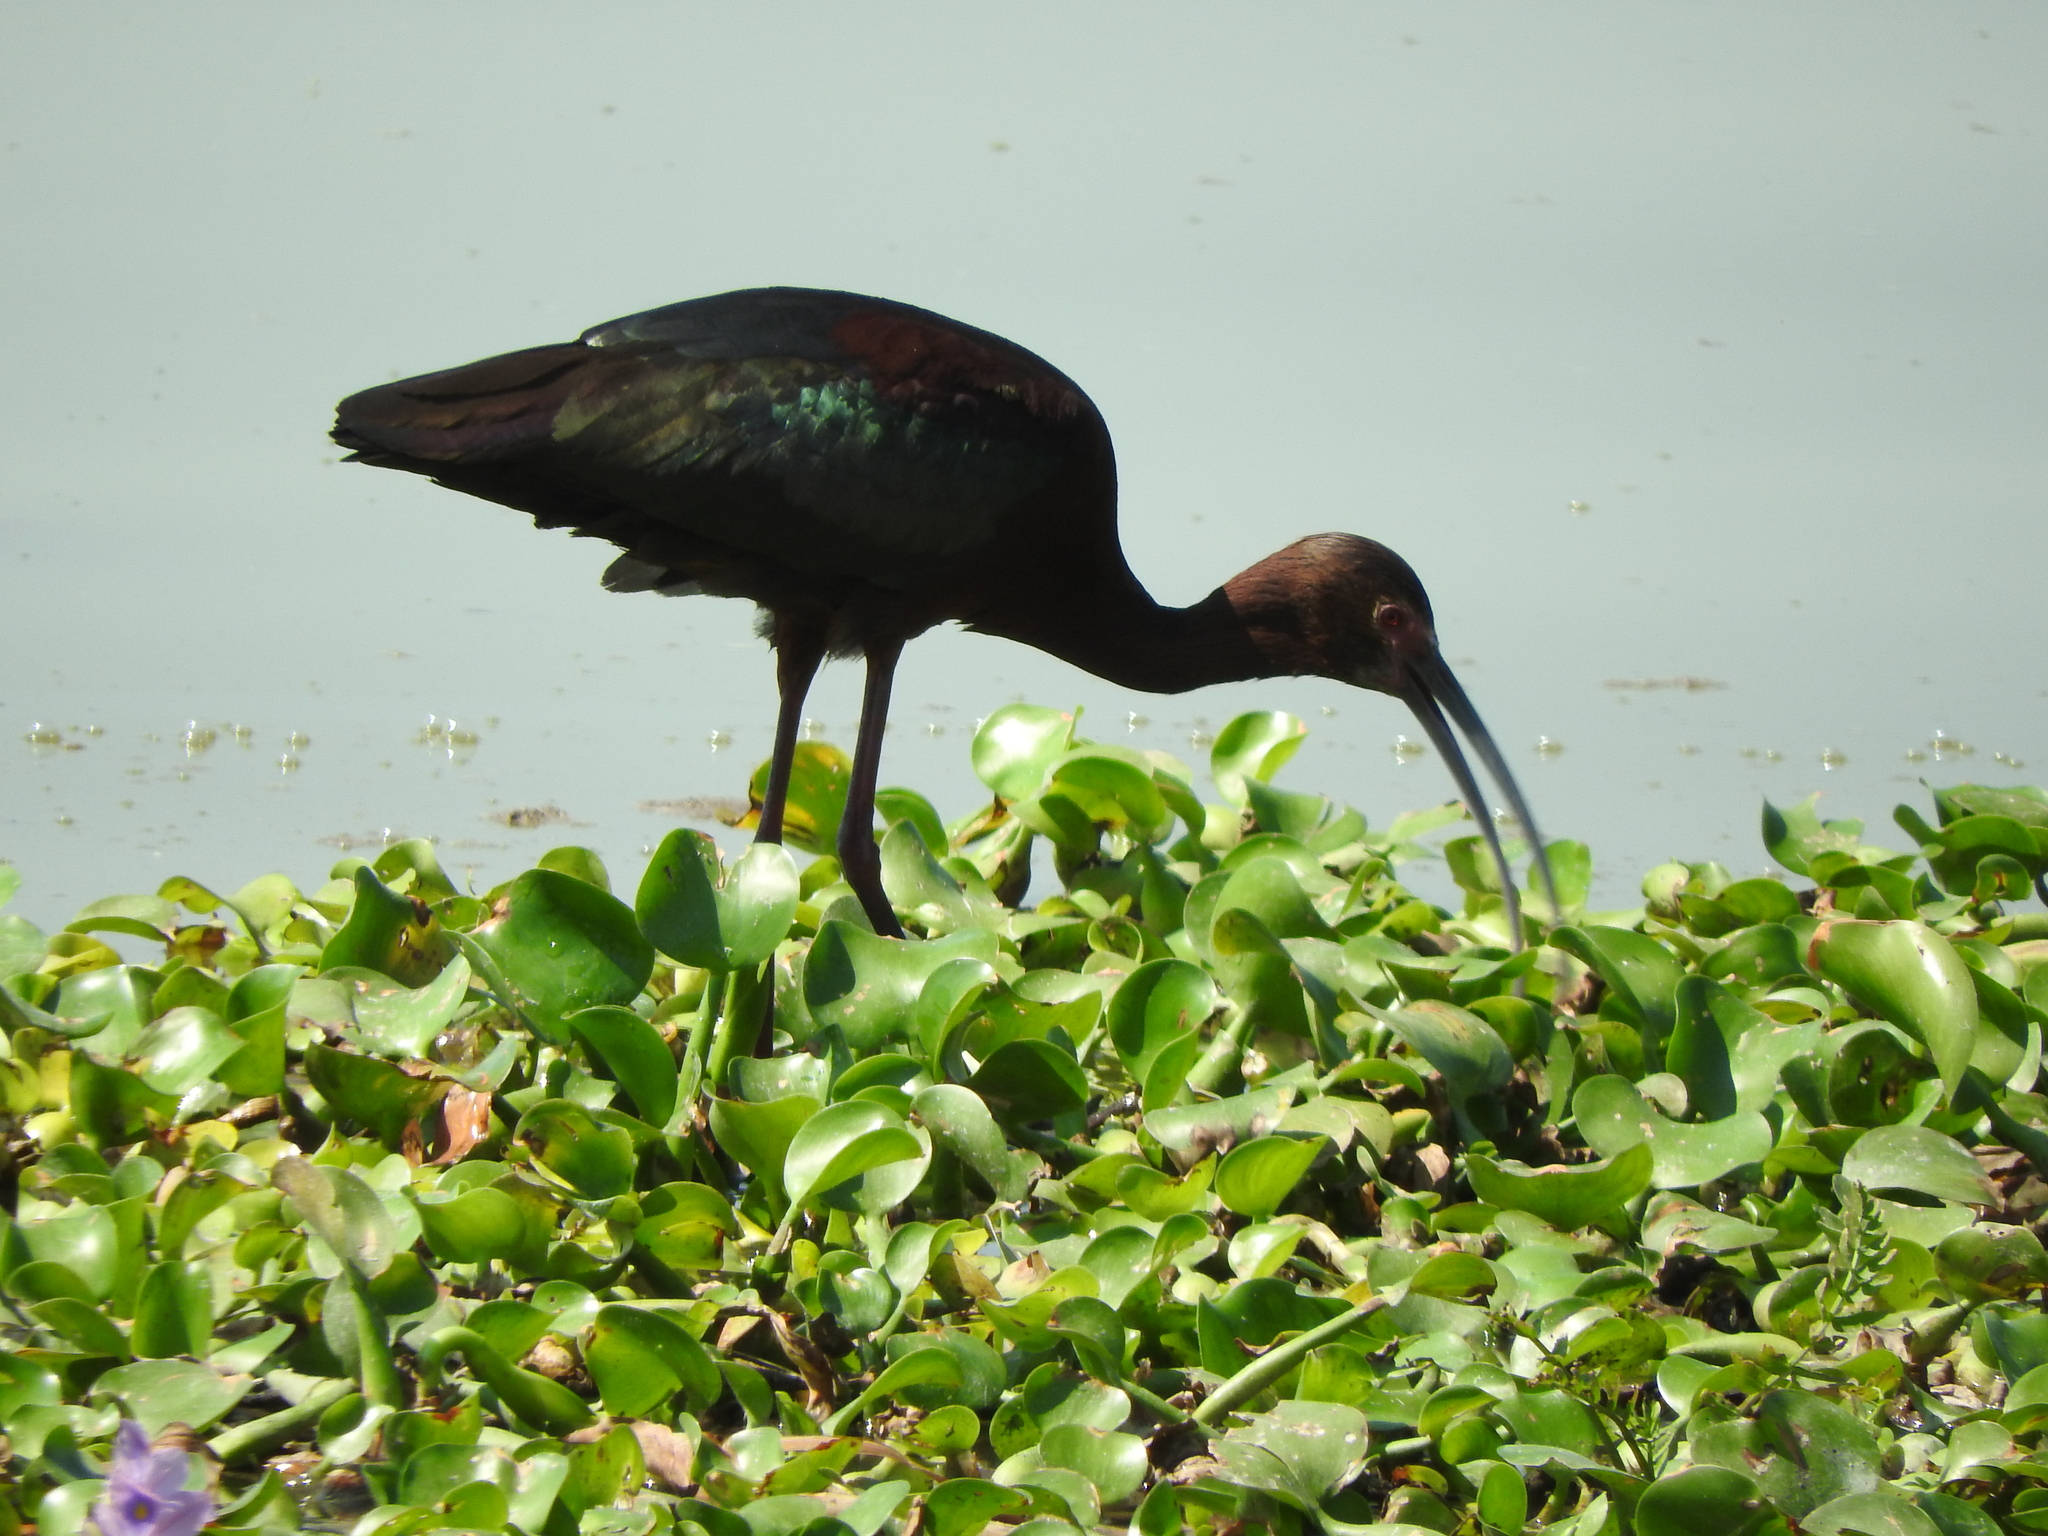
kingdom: Animalia
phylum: Chordata
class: Aves
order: Pelecaniformes
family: Threskiornithidae
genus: Plegadis
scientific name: Plegadis chihi
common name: White-faced ibis
